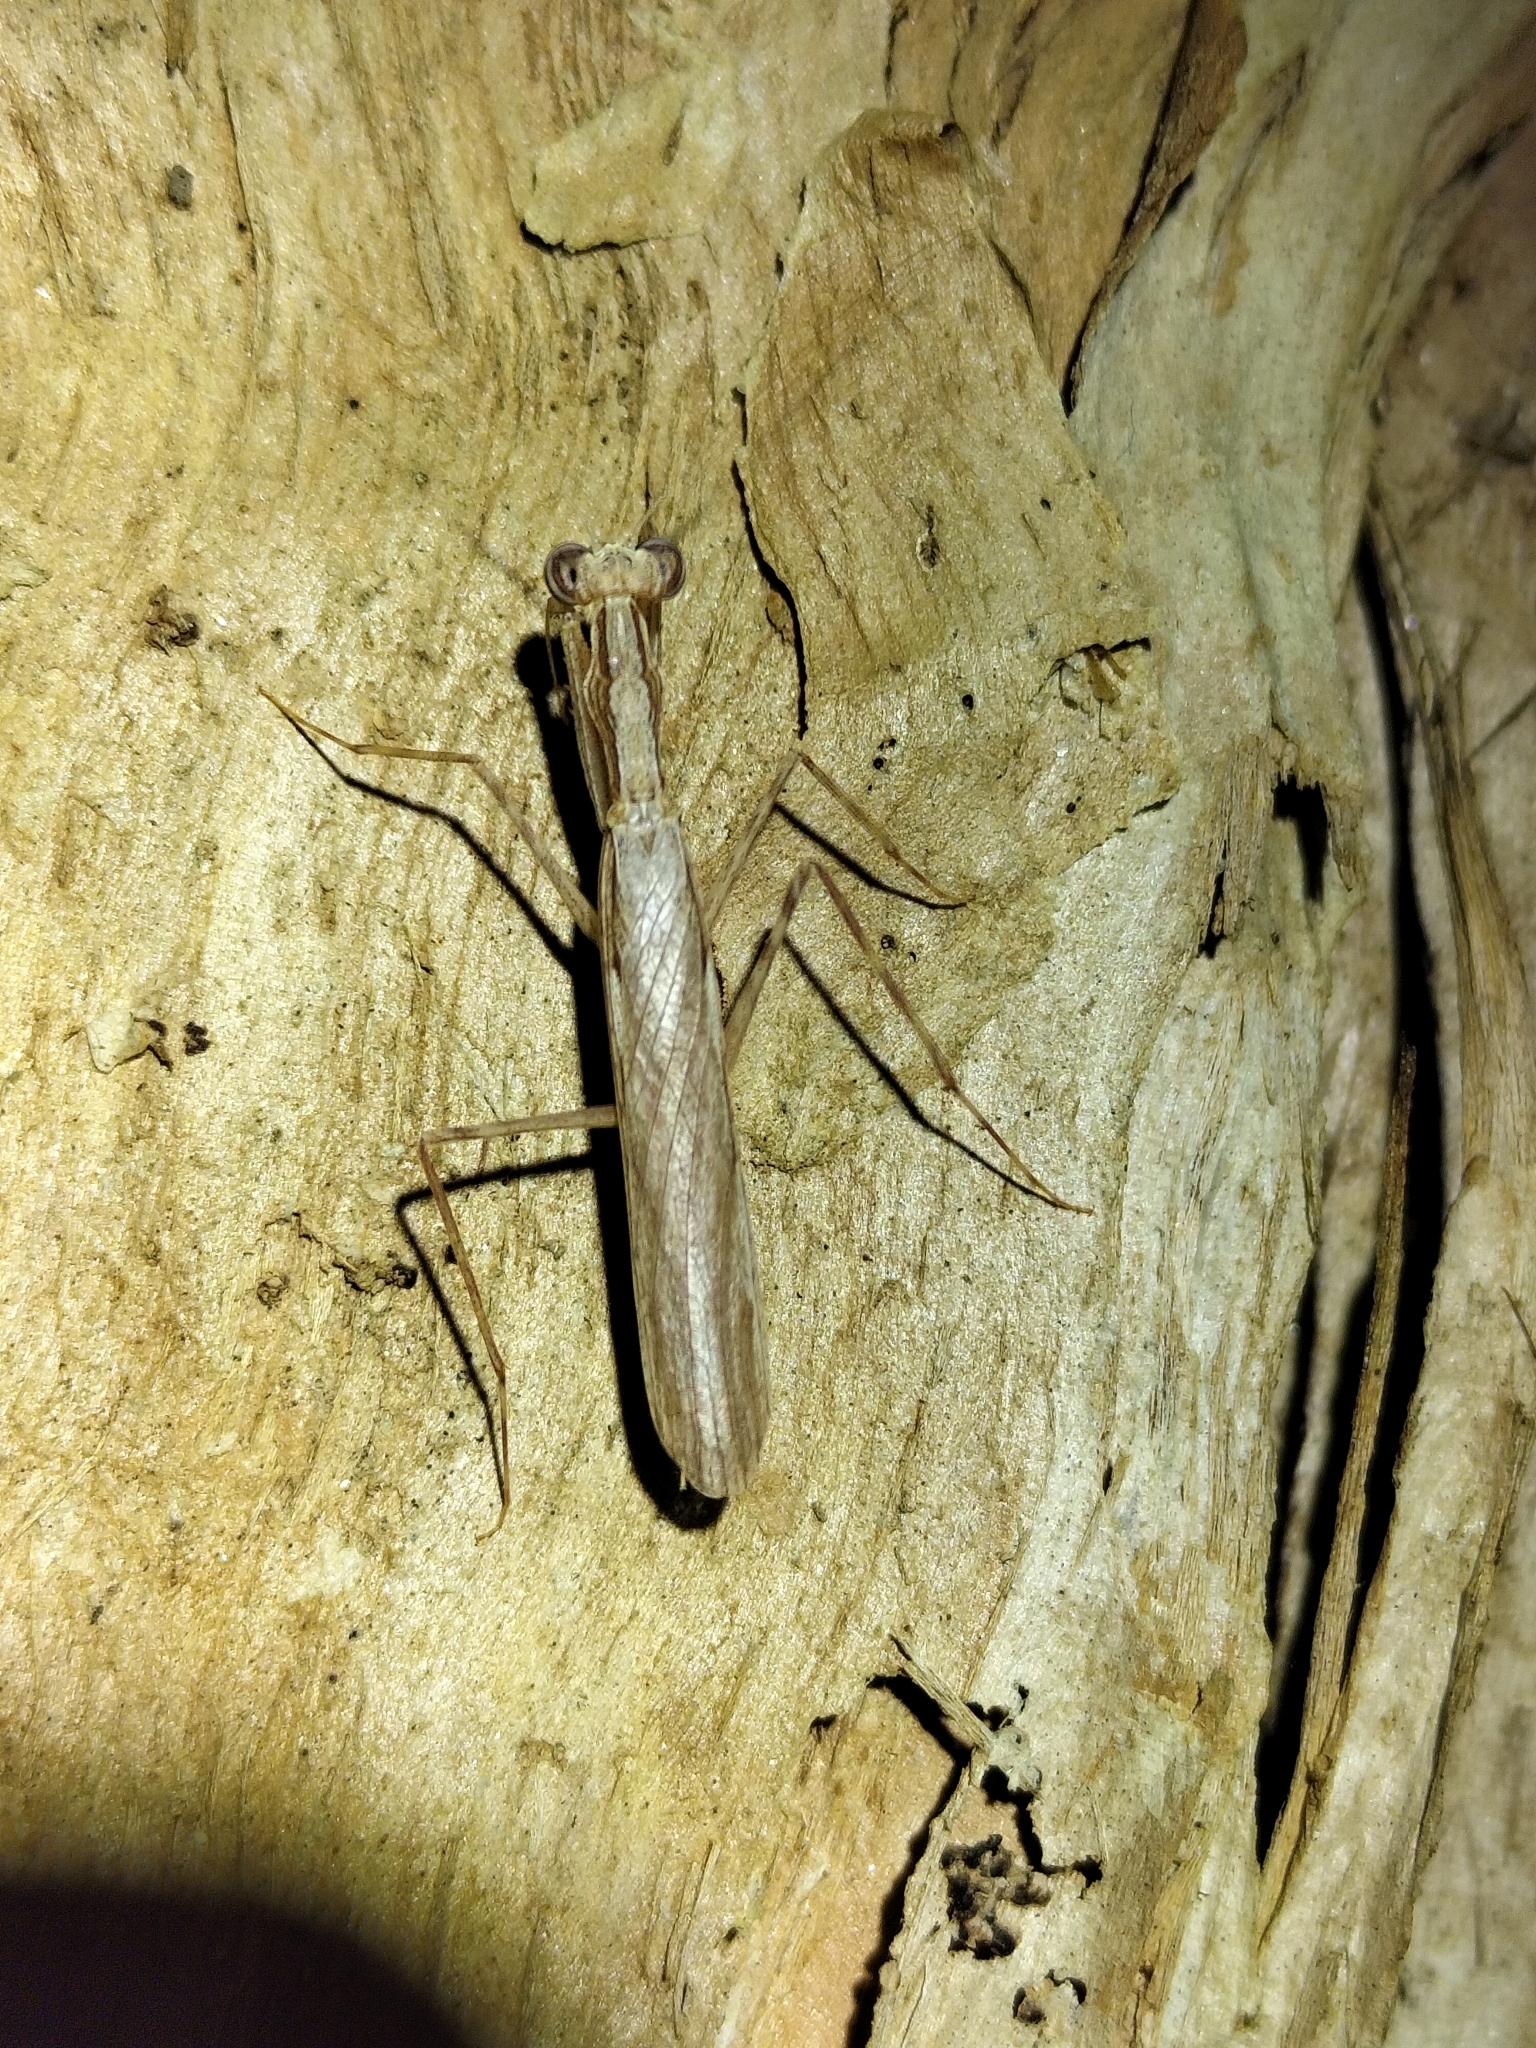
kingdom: Animalia
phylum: Arthropoda
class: Insecta
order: Mantodea
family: Nanomantidae
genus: Ima
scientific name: Ima fusca
